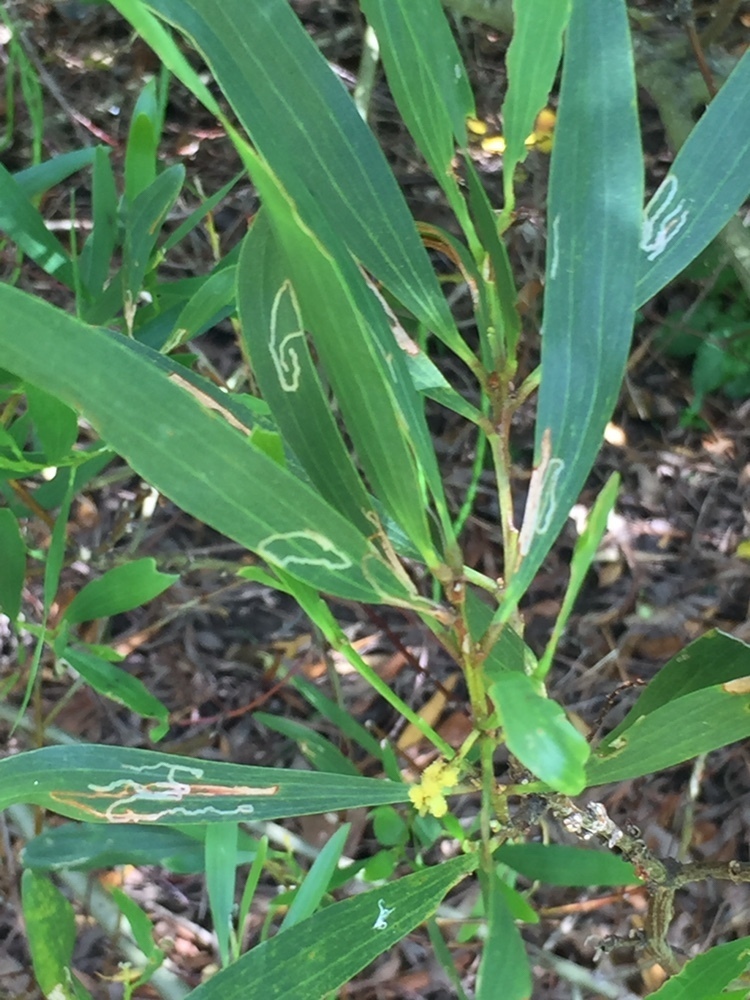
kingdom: Animalia
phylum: Arthropoda
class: Insecta
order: Lepidoptera
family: Gracillariidae
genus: Parectopa
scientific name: Parectopa alysidota
